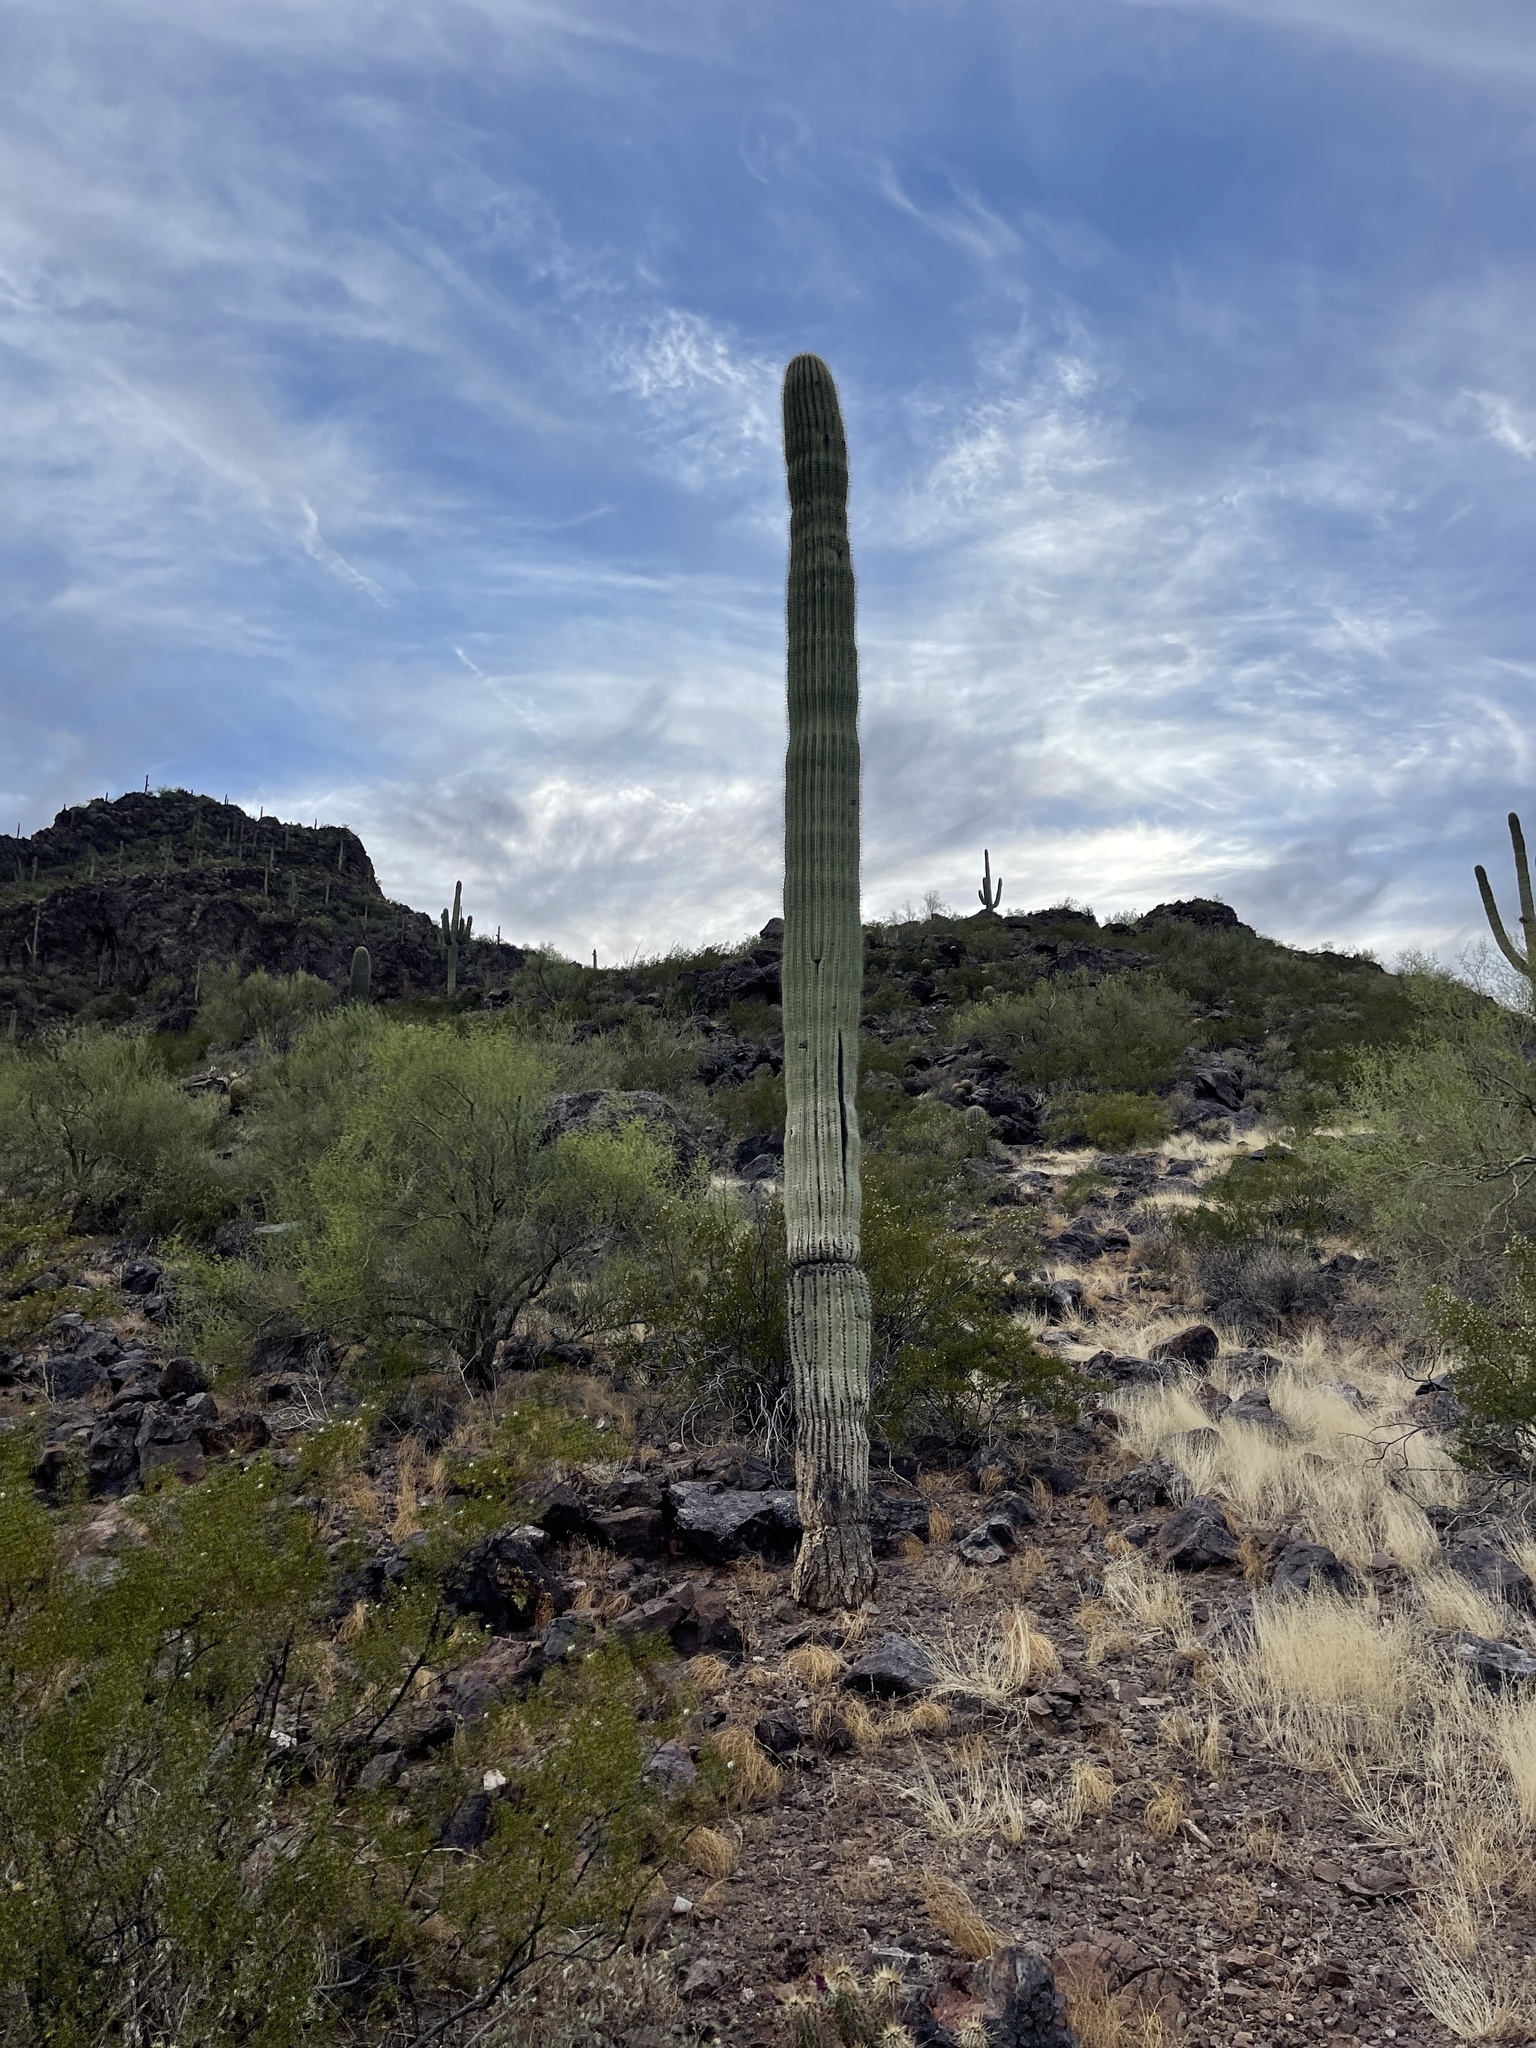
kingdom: Plantae
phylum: Tracheophyta
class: Magnoliopsida
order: Caryophyllales
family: Cactaceae
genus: Carnegiea
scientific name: Carnegiea gigantea
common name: Saguaro
